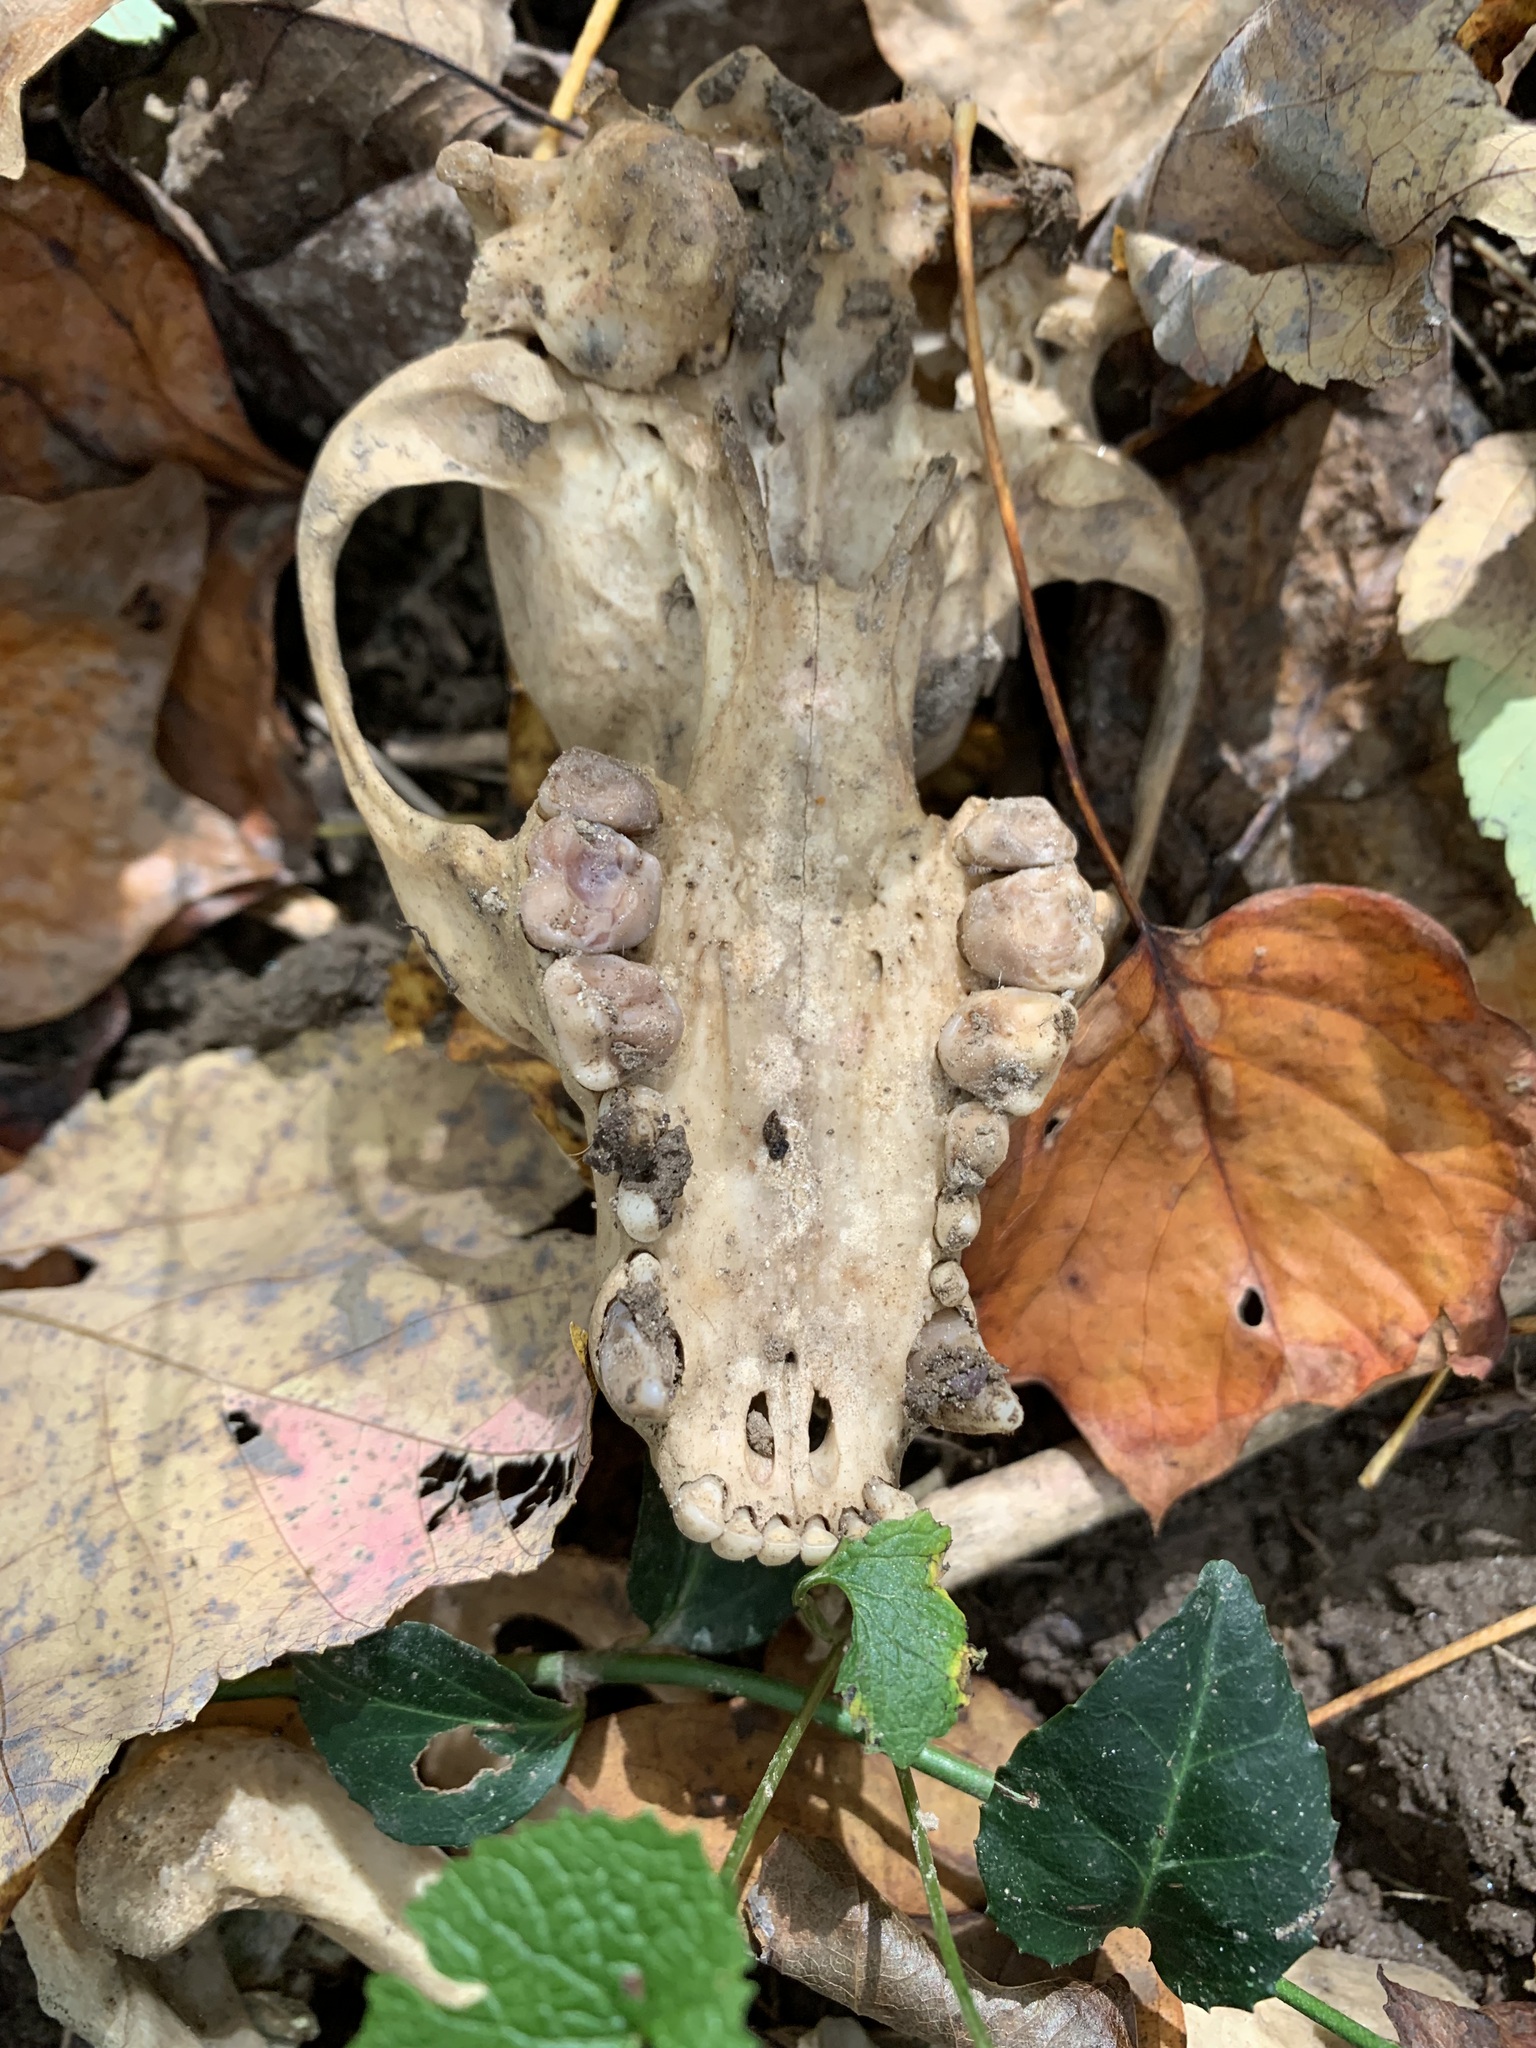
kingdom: Animalia
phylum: Chordata
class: Mammalia
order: Carnivora
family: Procyonidae
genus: Procyon
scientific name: Procyon lotor
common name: Raccoon
